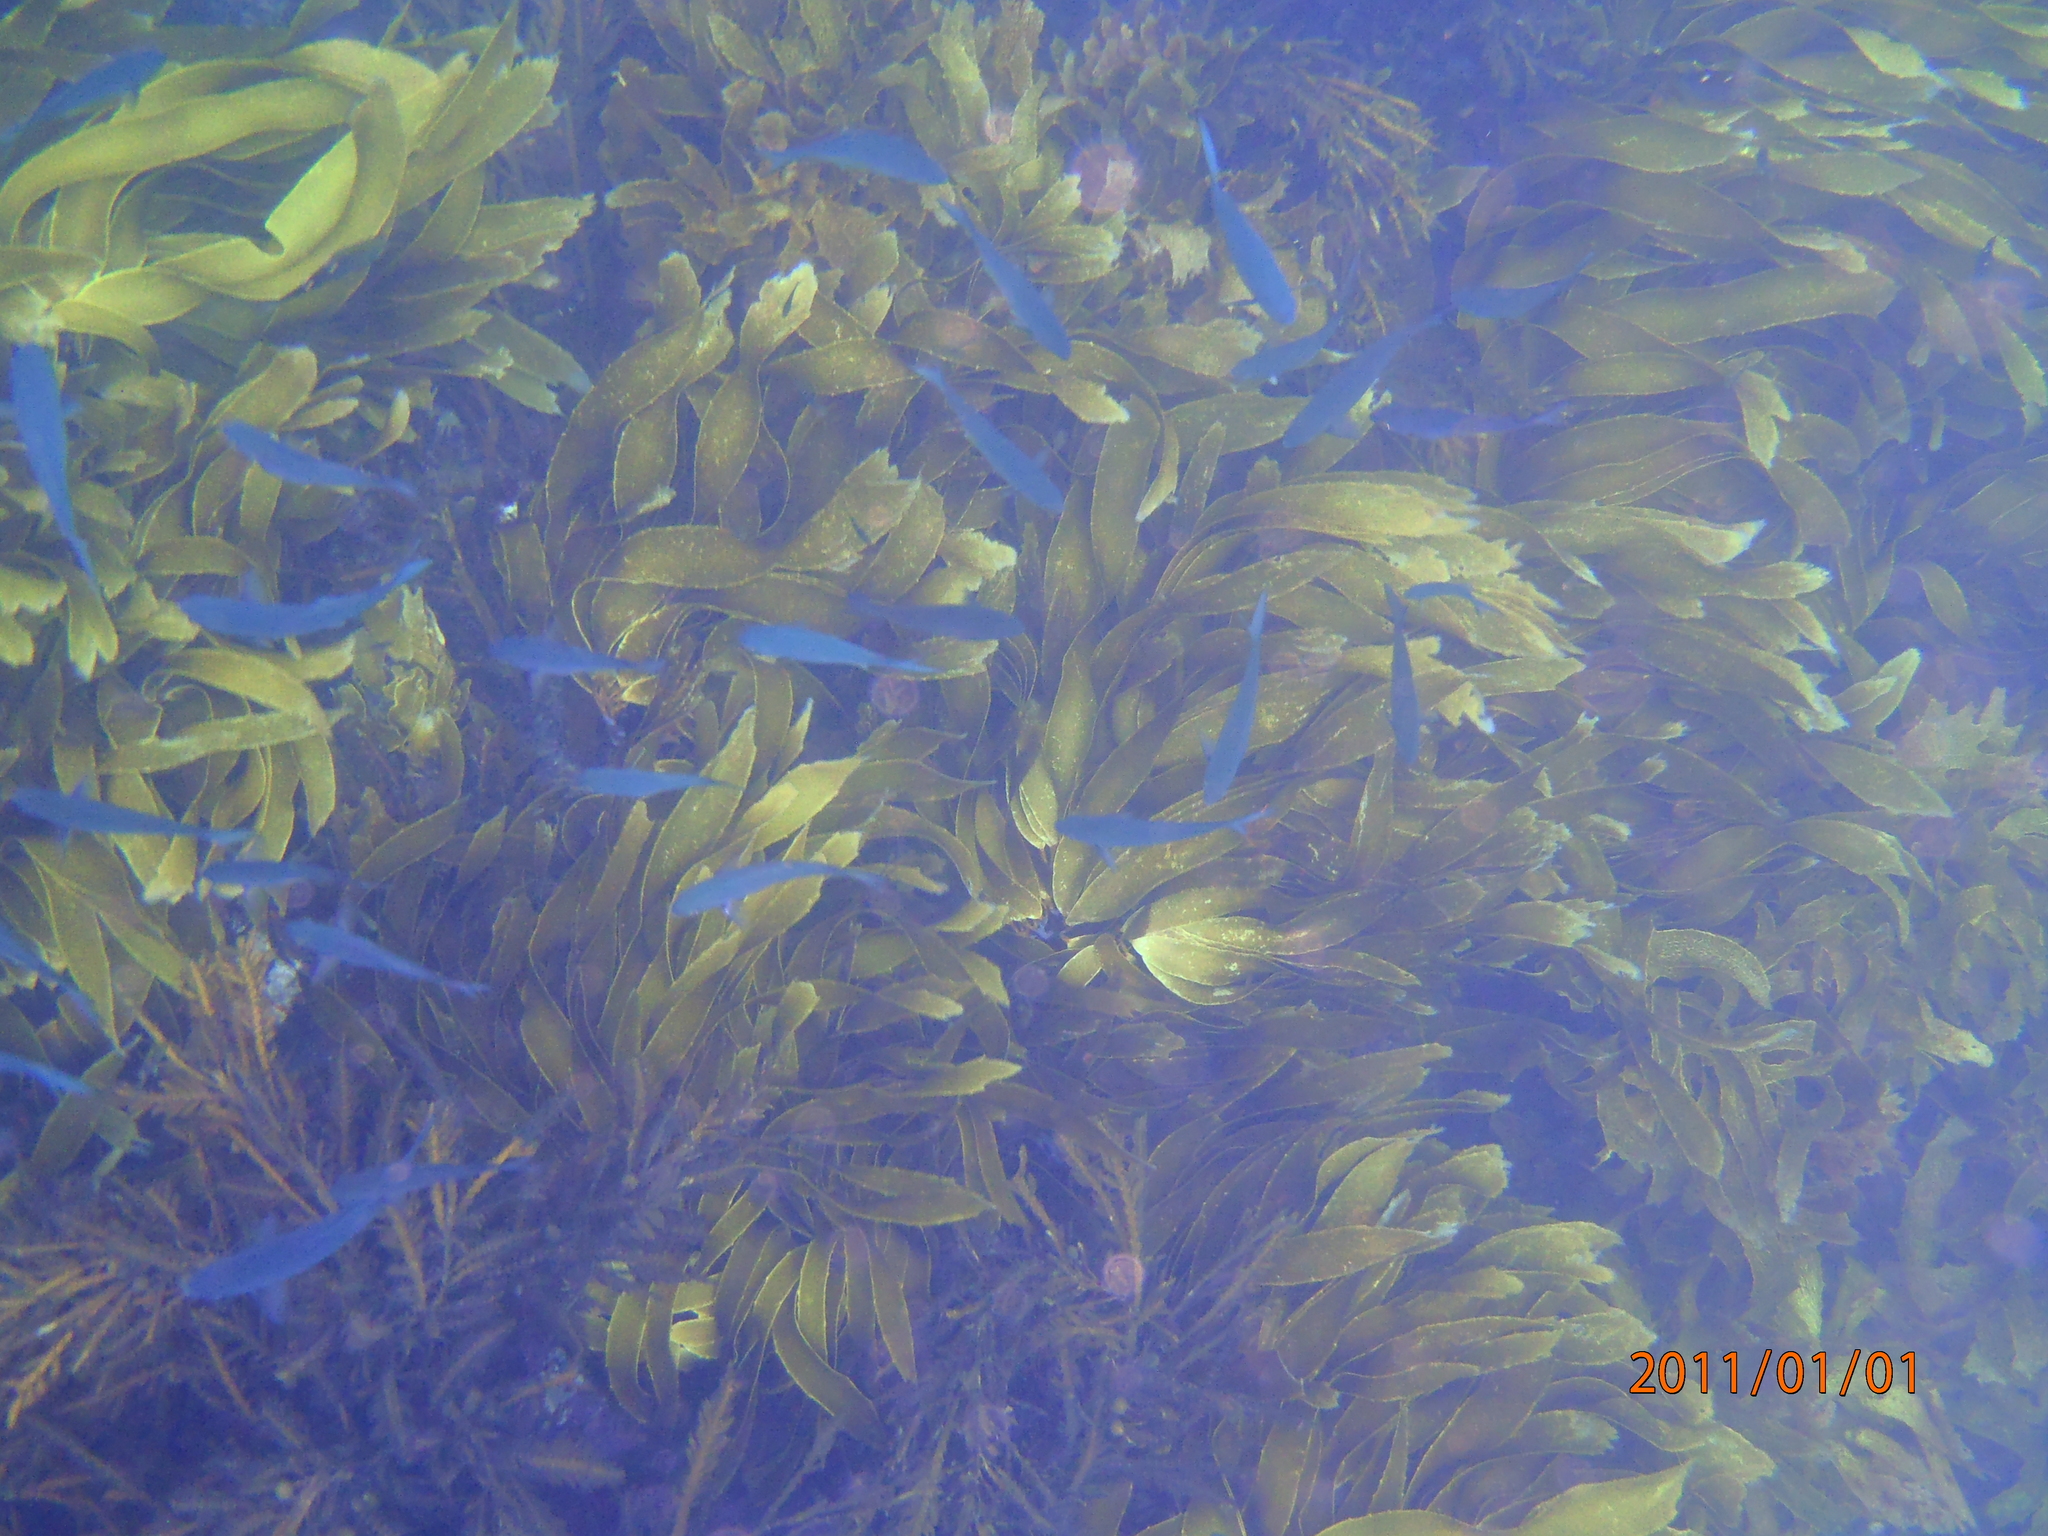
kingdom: Animalia
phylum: Chordata
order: Perciformes
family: Kyphosidae
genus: Scorpis
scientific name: Scorpis violacea
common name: Blue maomao
